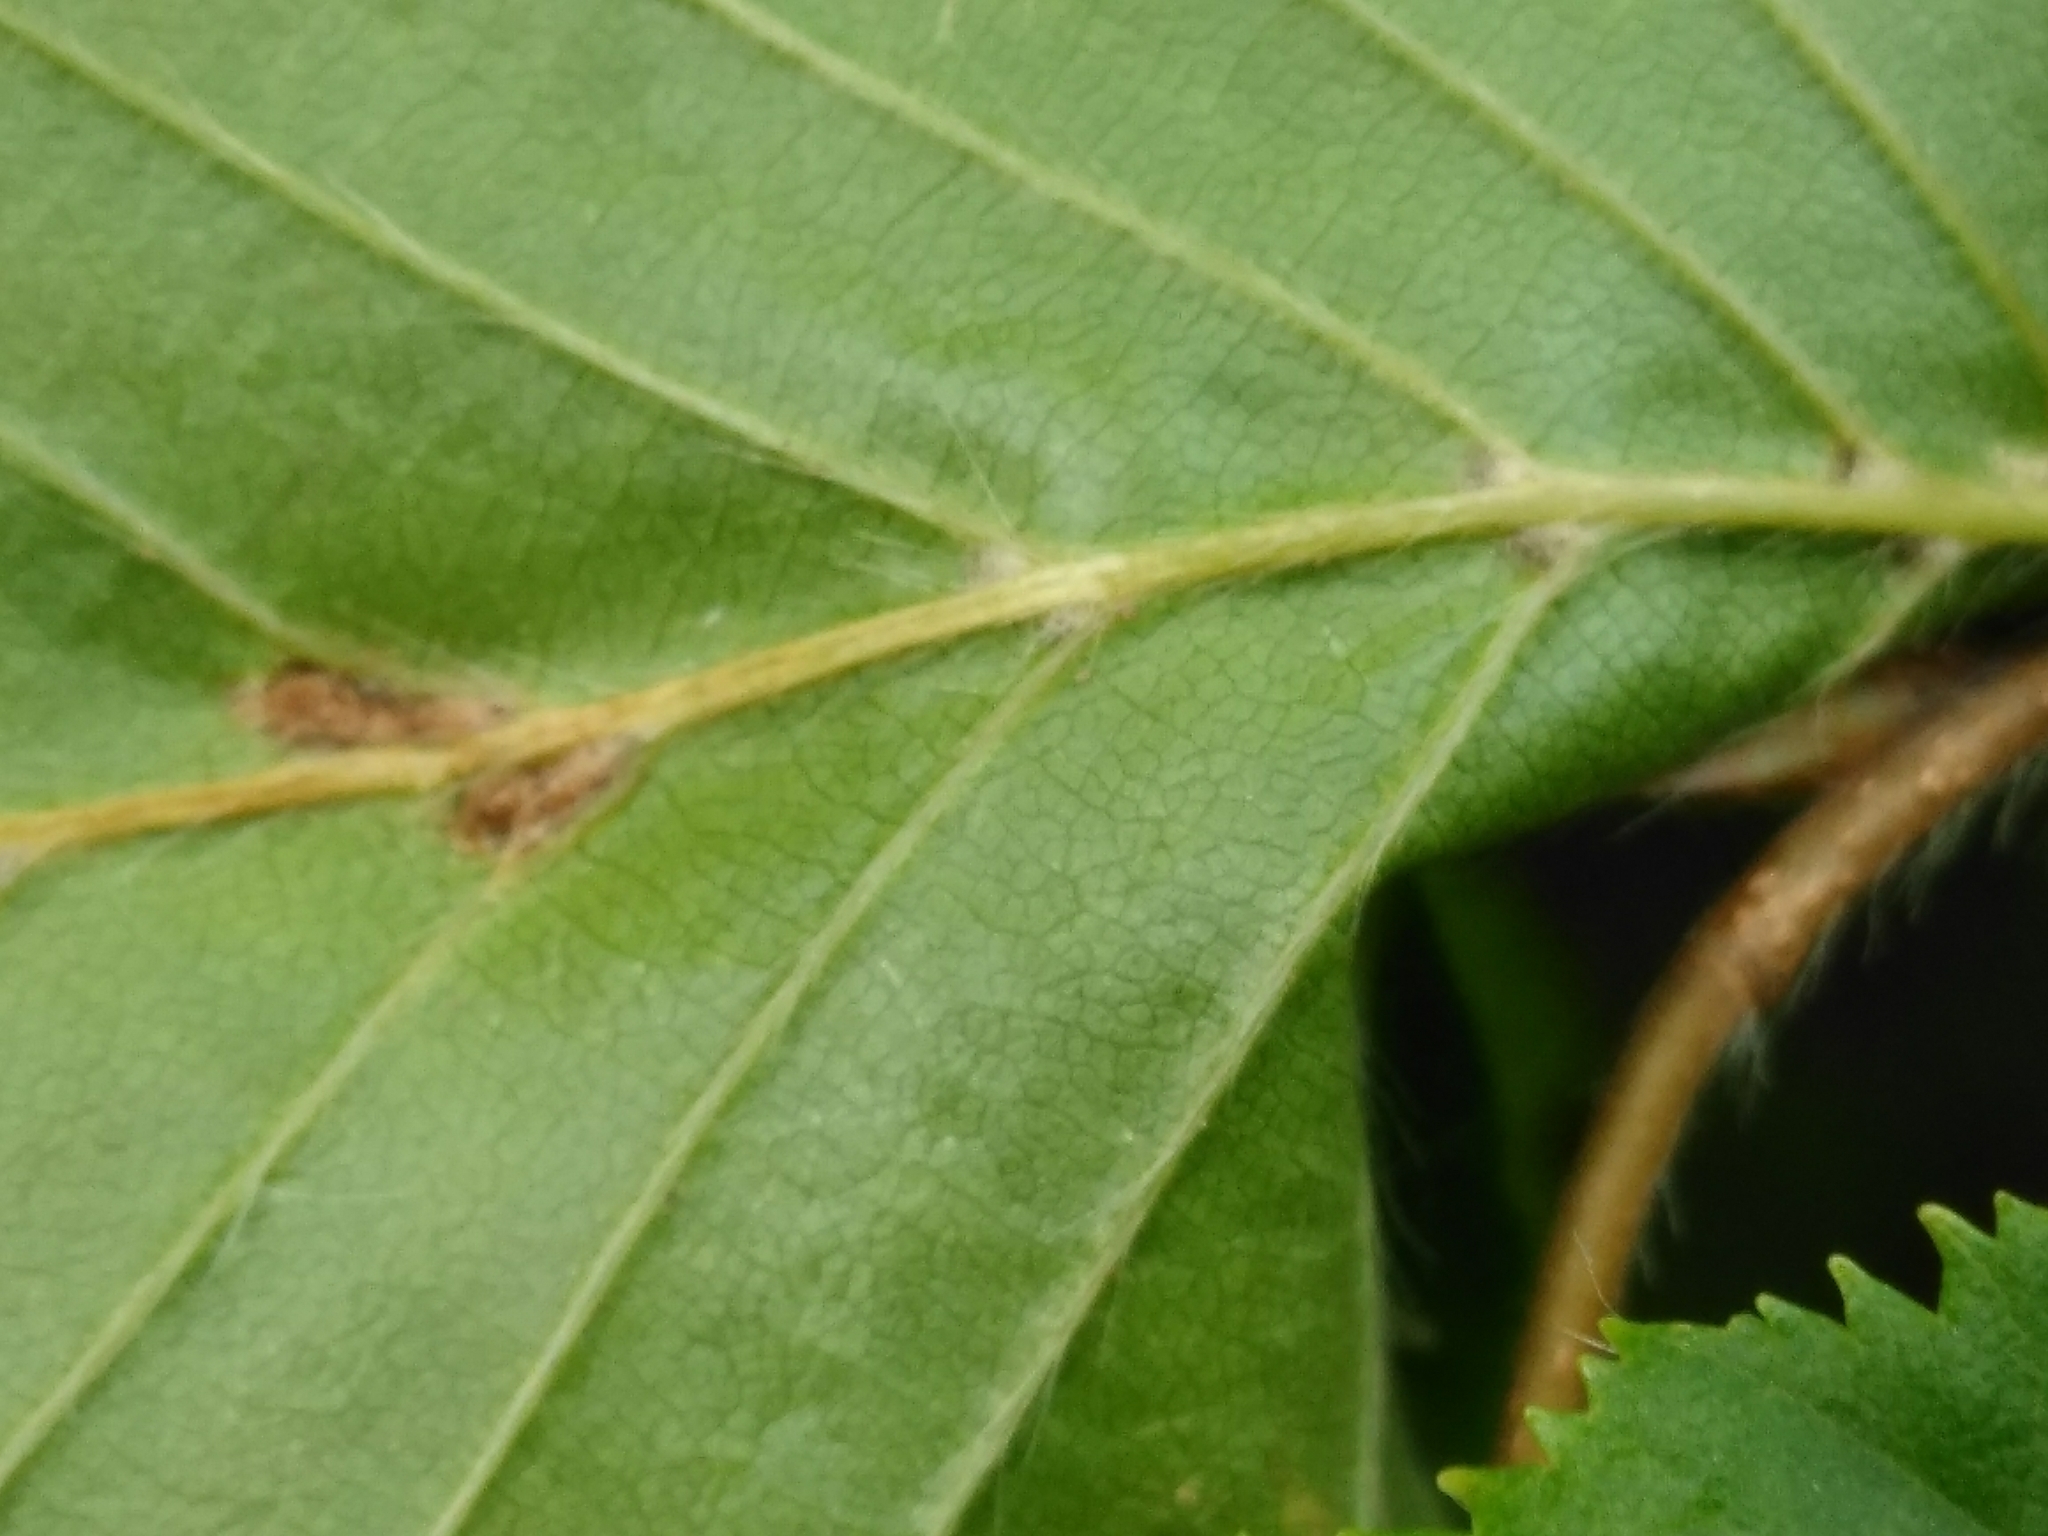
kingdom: Animalia
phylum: Arthropoda
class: Arachnida
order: Trombidiformes
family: Eriophyidae
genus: Aceria
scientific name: Aceria tenellus
